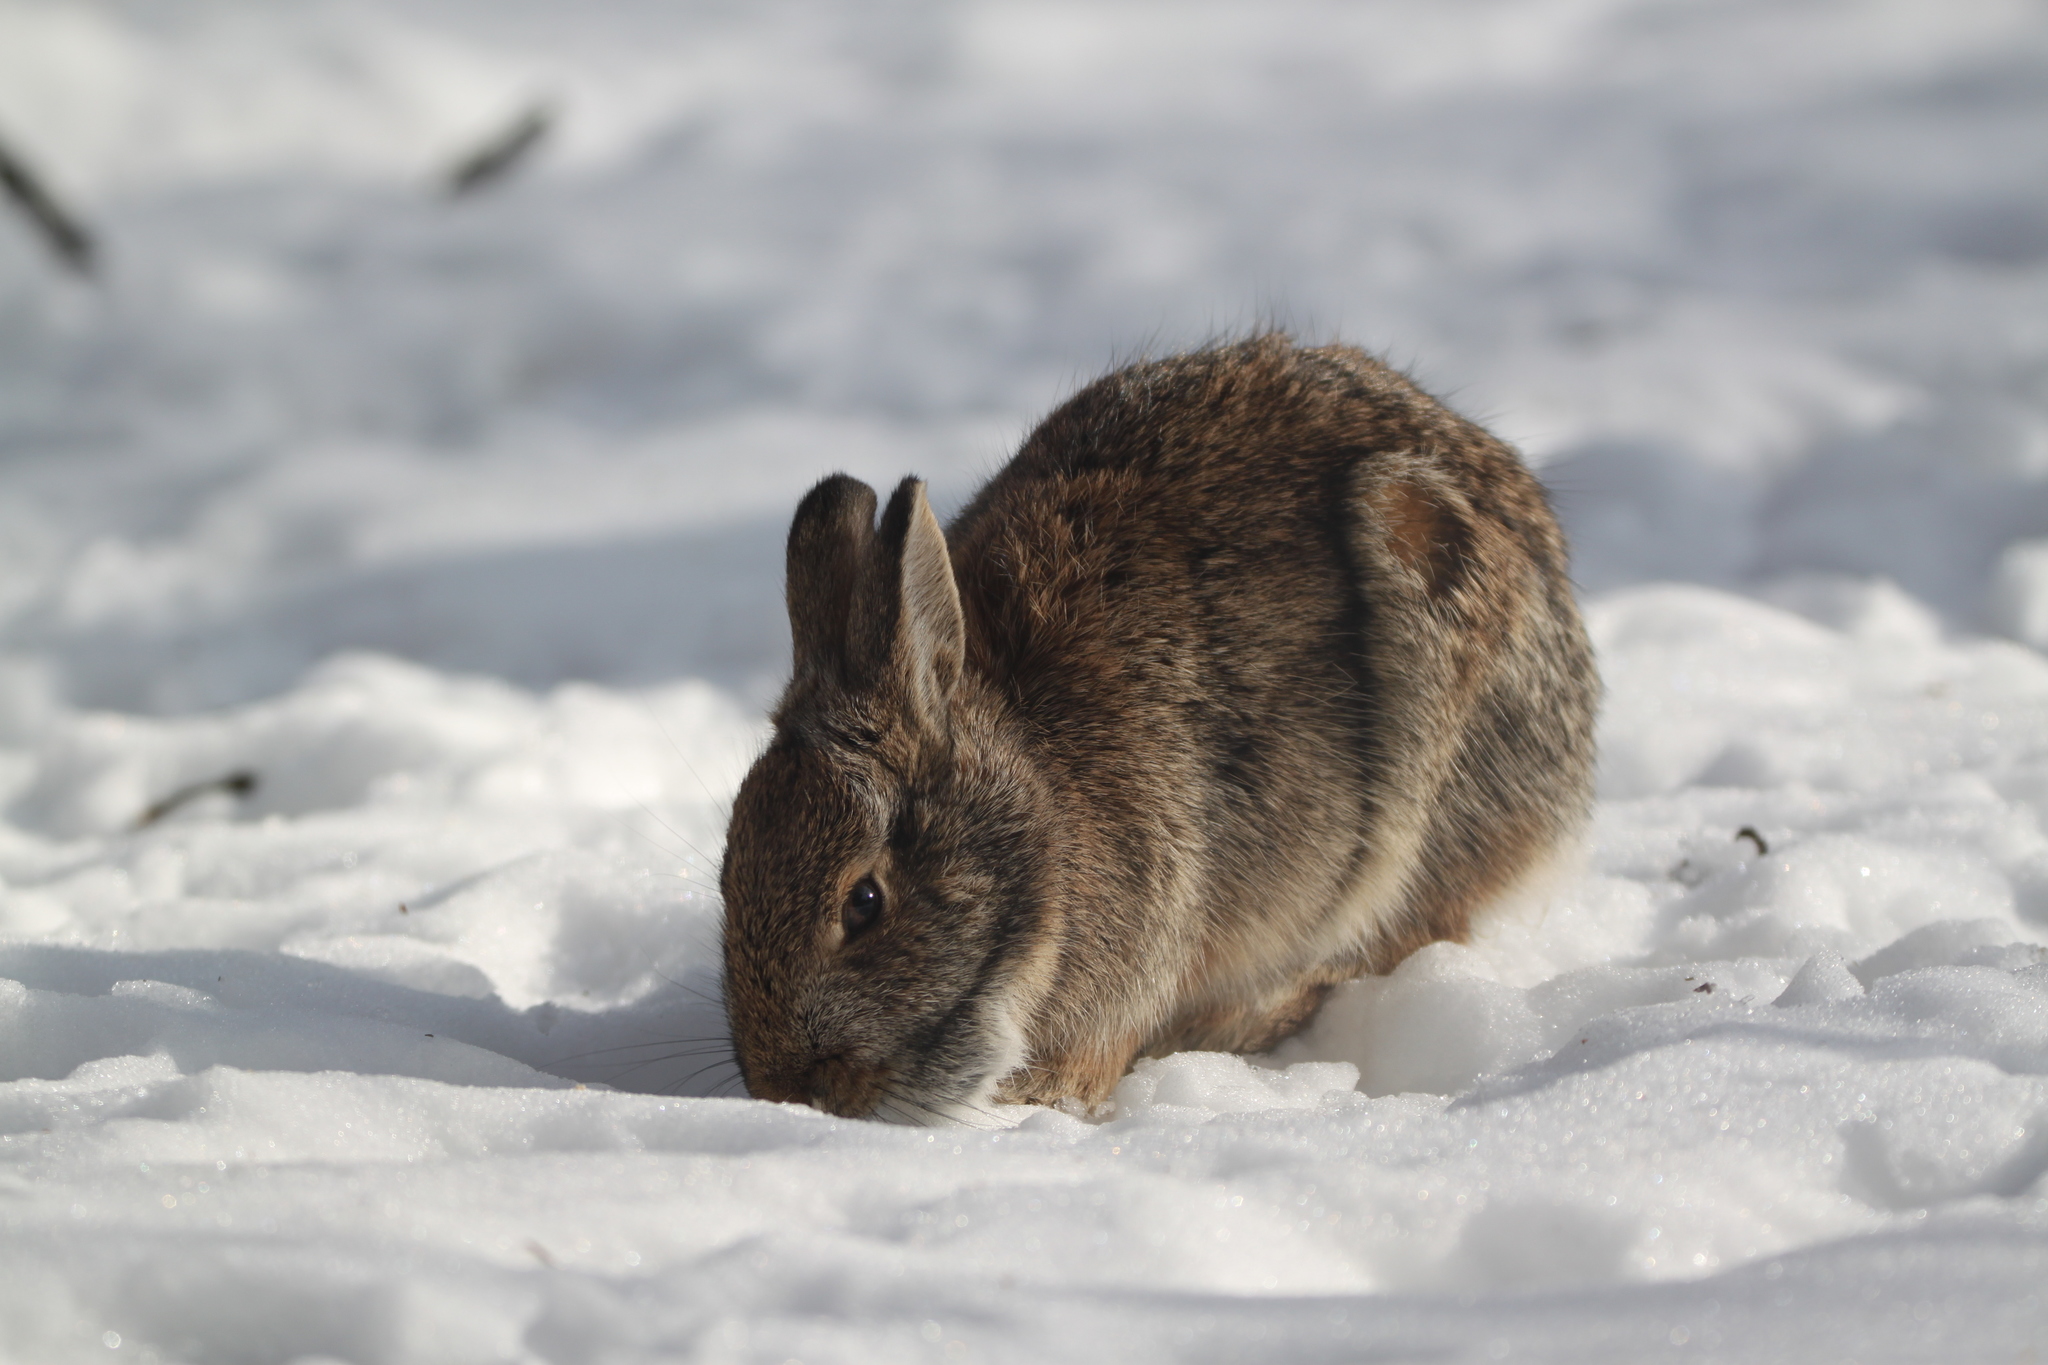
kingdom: Animalia
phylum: Chordata
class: Mammalia
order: Lagomorpha
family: Leporidae
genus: Sylvilagus
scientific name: Sylvilagus floridanus
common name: Eastern cottontail
